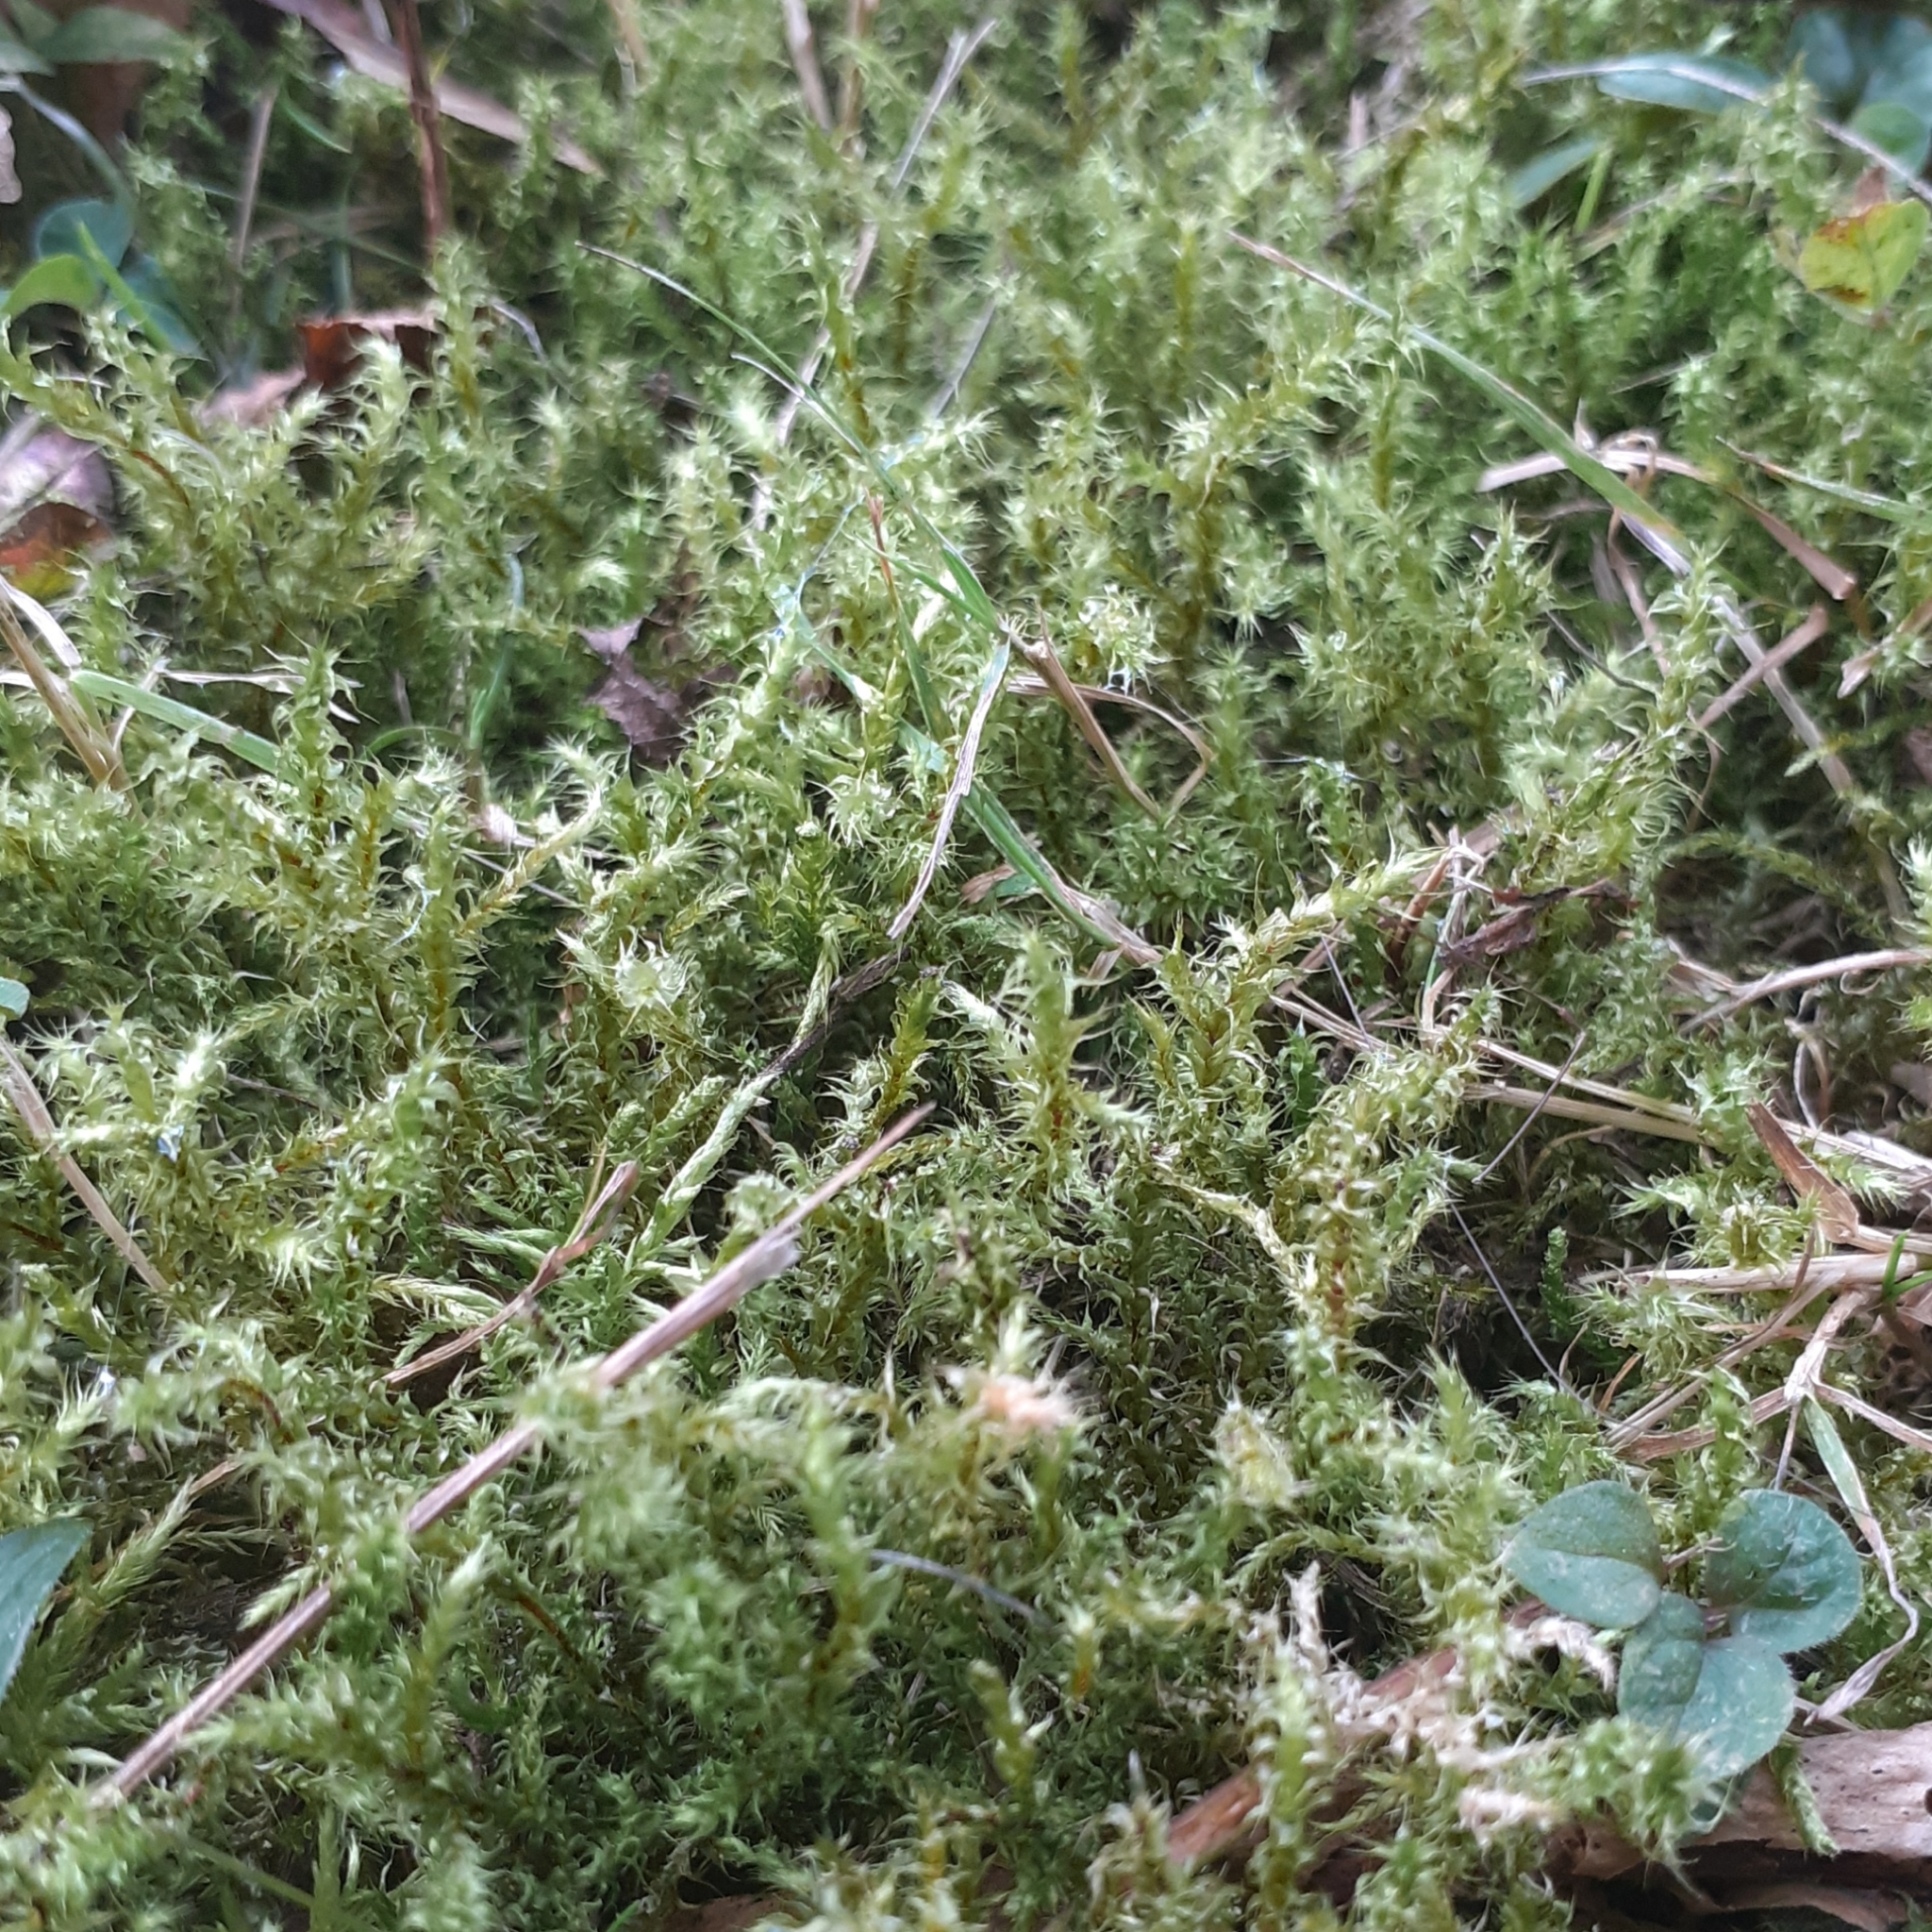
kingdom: Plantae
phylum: Bryophyta
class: Bryopsida
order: Hypnales
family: Hylocomiaceae
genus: Rhytidiadelphus
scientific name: Rhytidiadelphus squarrosus
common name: Springy turf-moss
